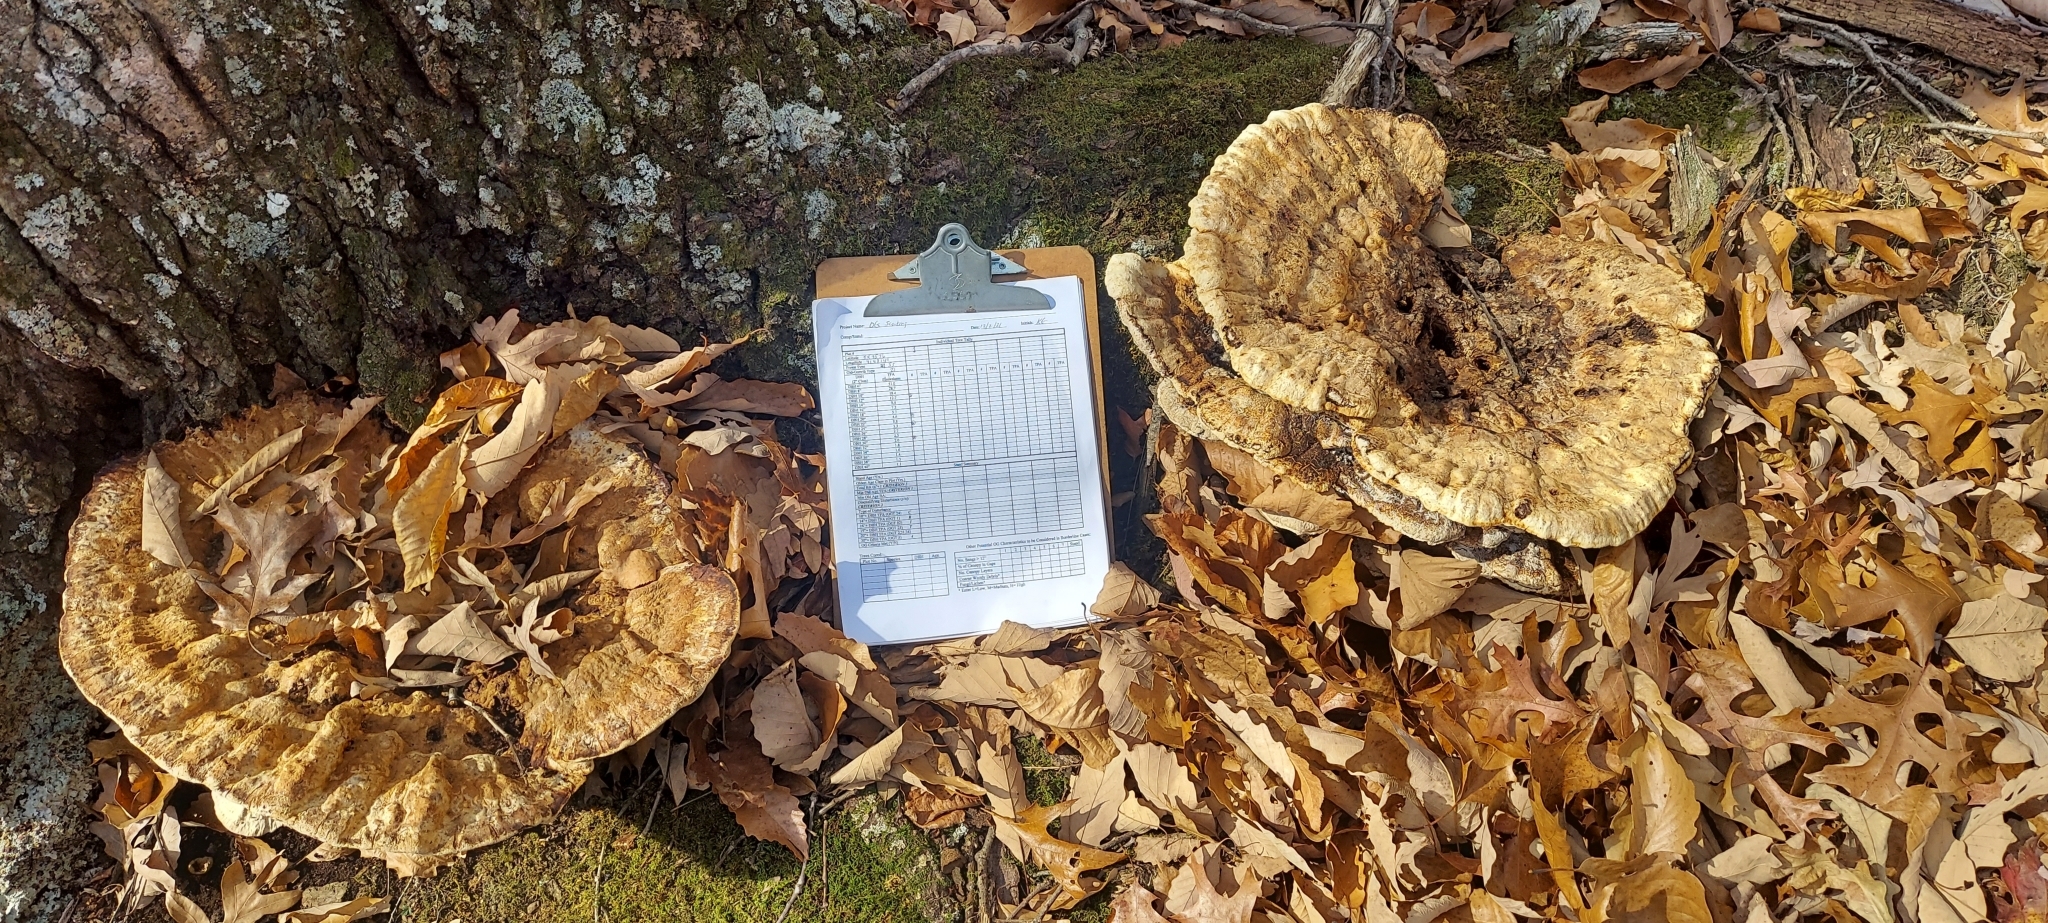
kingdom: Fungi
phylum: Basidiomycota
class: Agaricomycetes
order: Hymenochaetales
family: Hymenochaetaceae
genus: Pseudoinonotus
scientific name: Pseudoinonotus dryadeus
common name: Oak bracket
